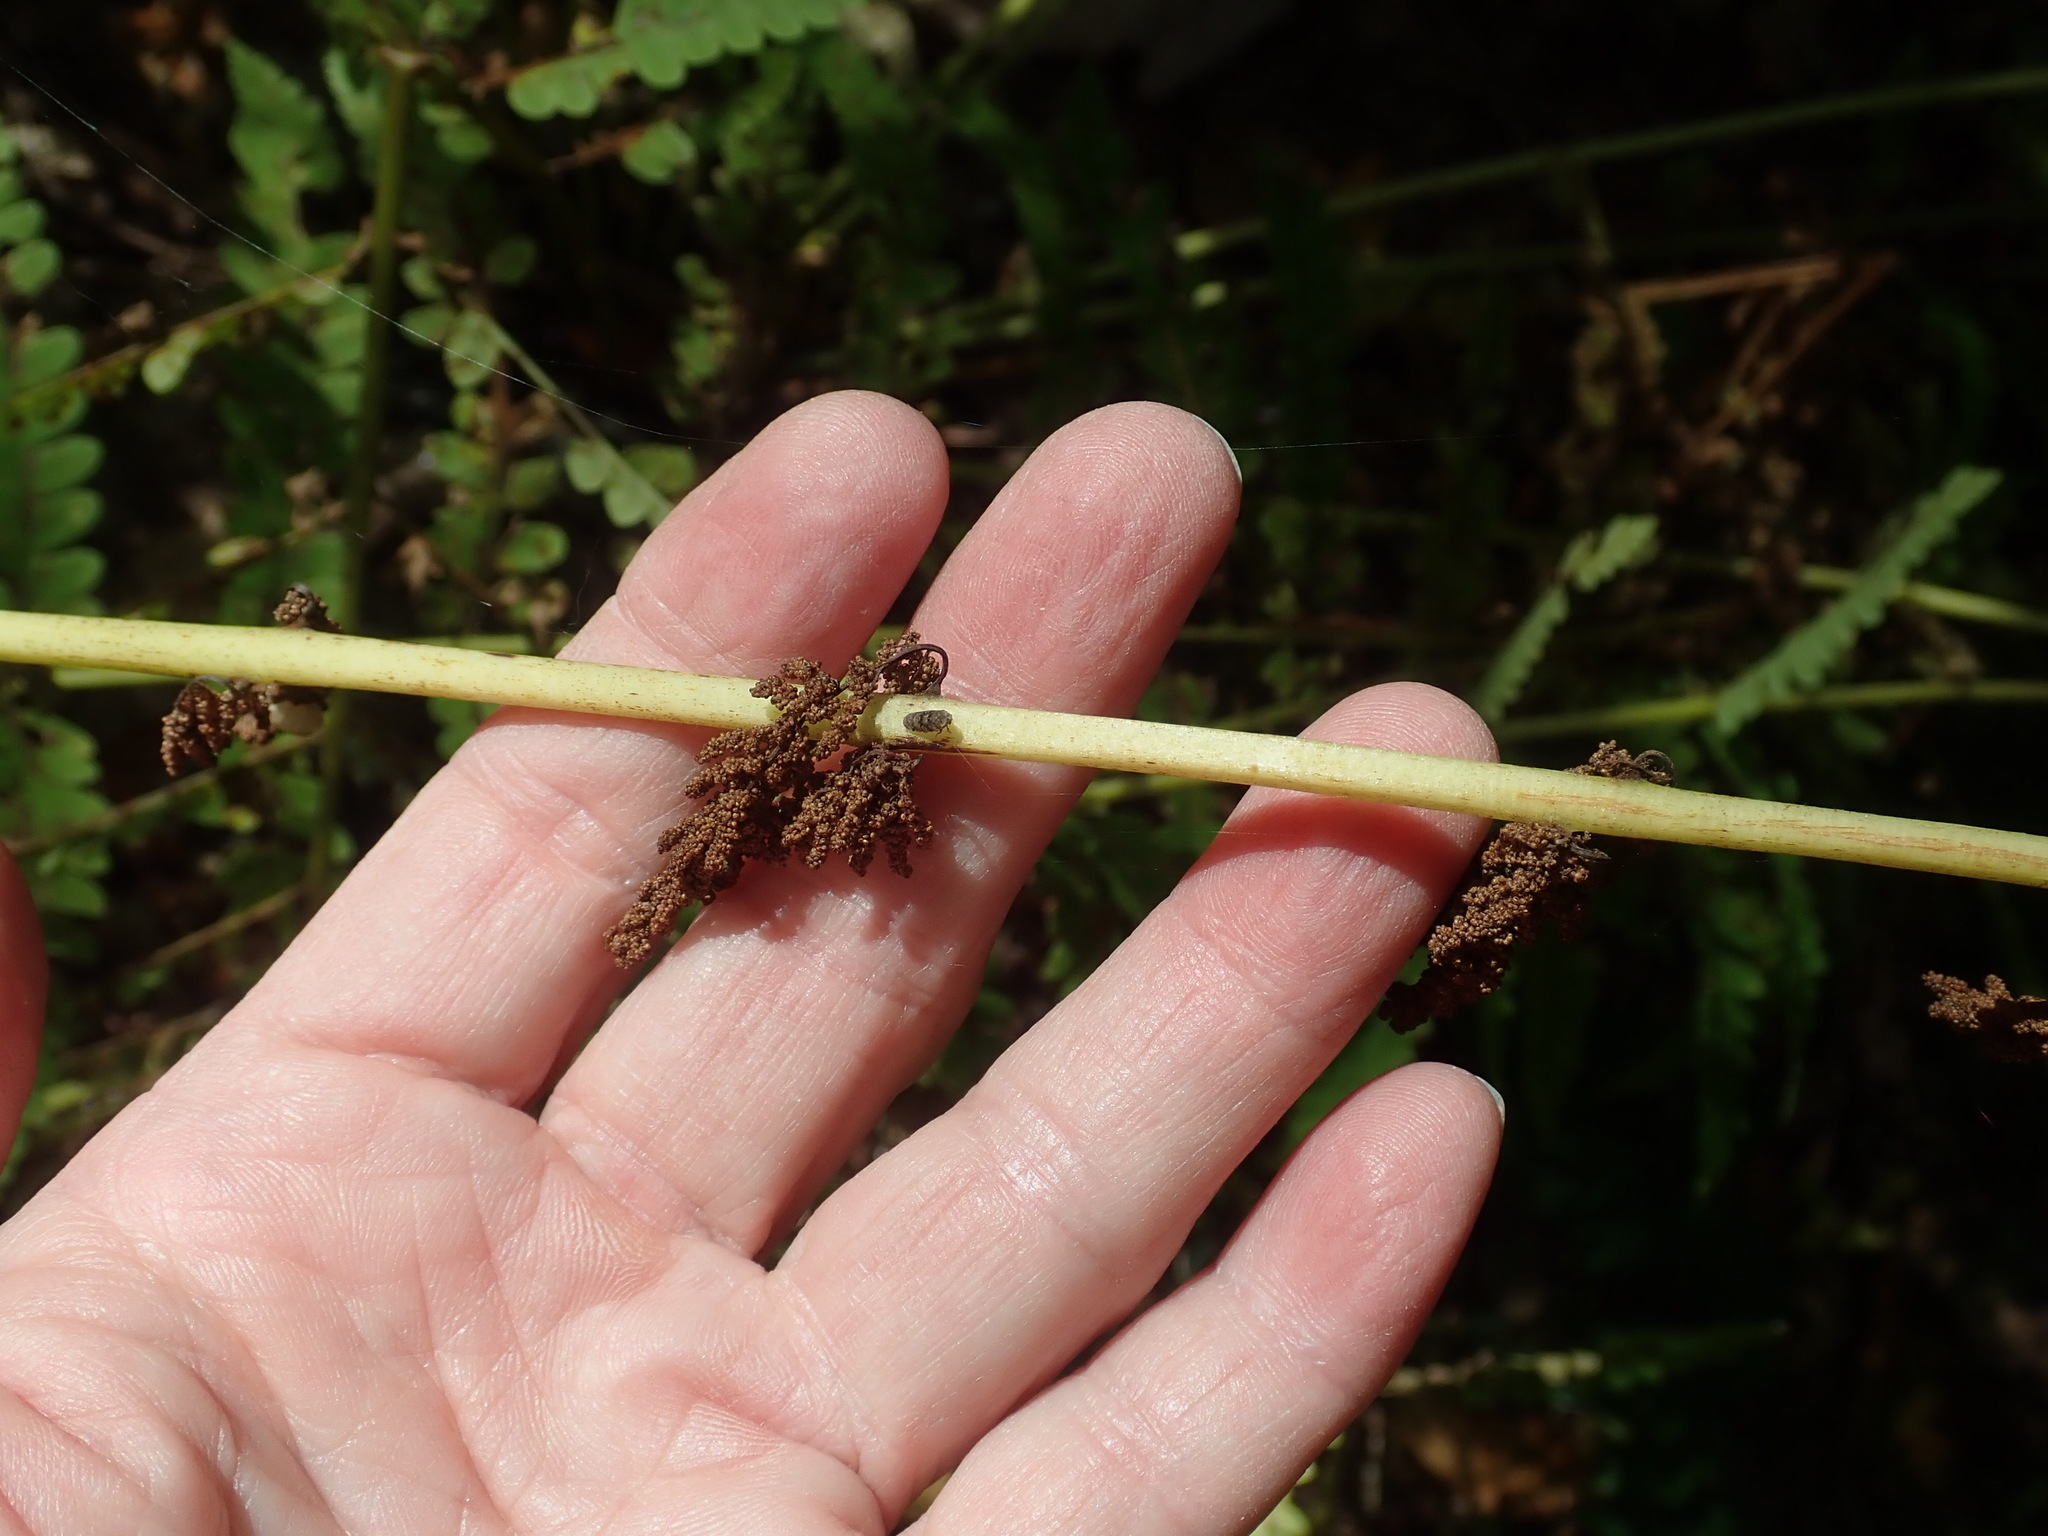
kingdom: Plantae
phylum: Tracheophyta
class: Polypodiopsida
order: Osmundales
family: Osmundaceae
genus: Claytosmunda
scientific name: Claytosmunda claytoniana
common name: Clayton's fern
